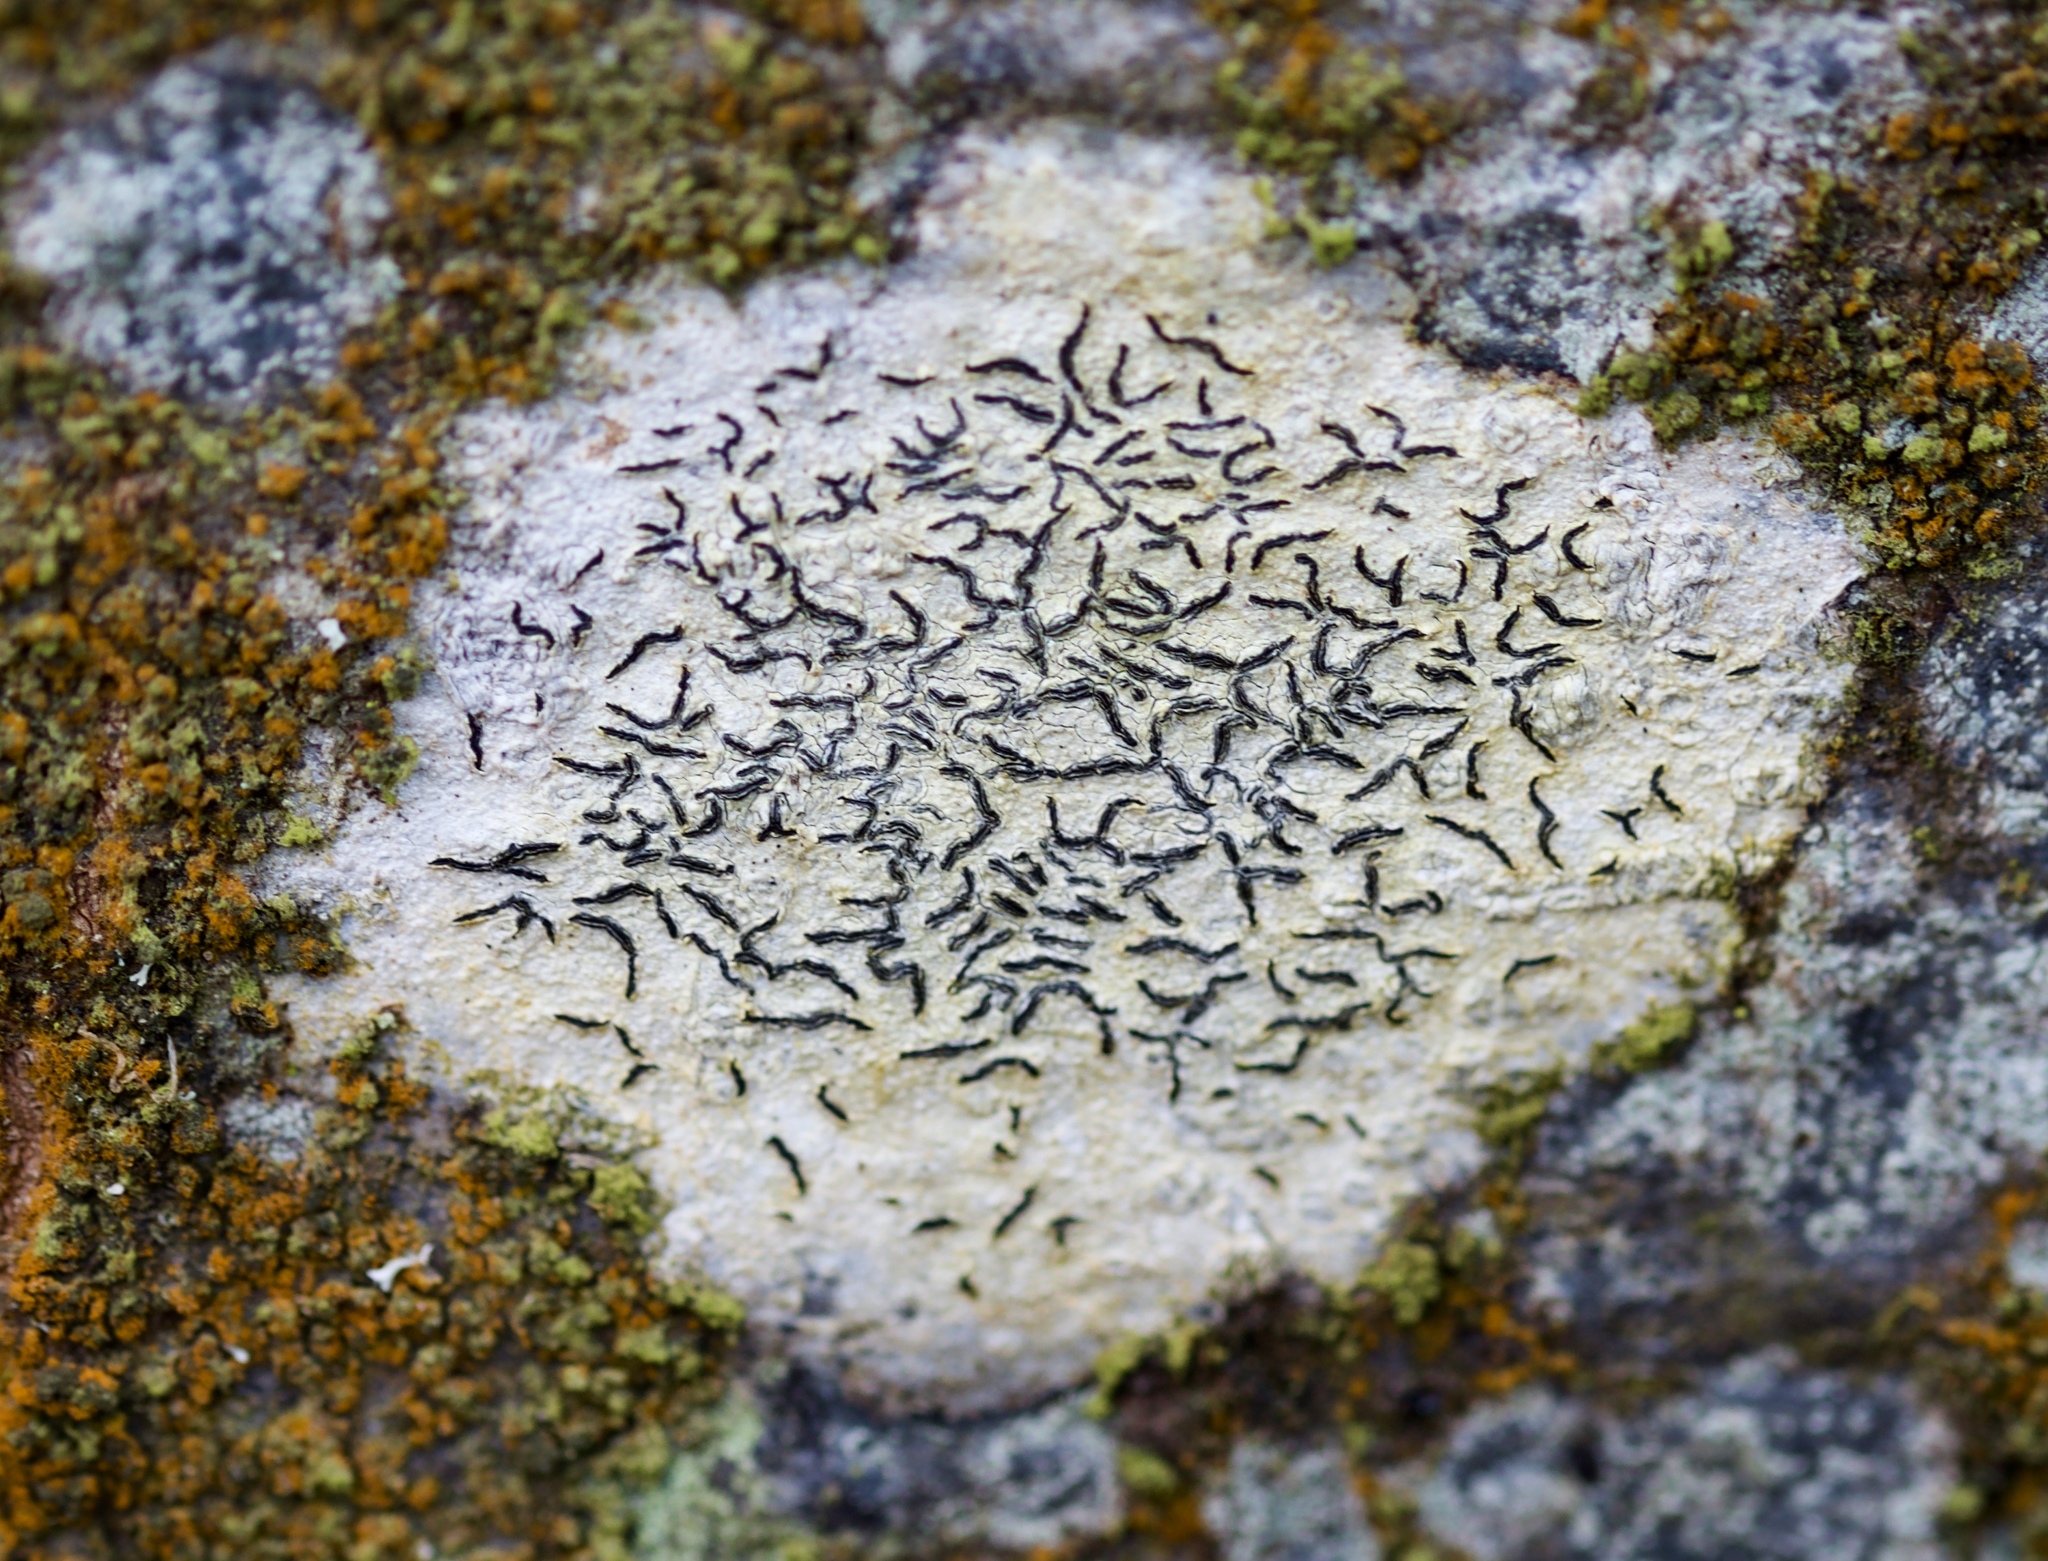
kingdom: Fungi
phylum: Ascomycota
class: Lecanoromycetes
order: Ostropales
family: Graphidaceae
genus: Graphis
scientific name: Graphis scripta
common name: Script lichen
